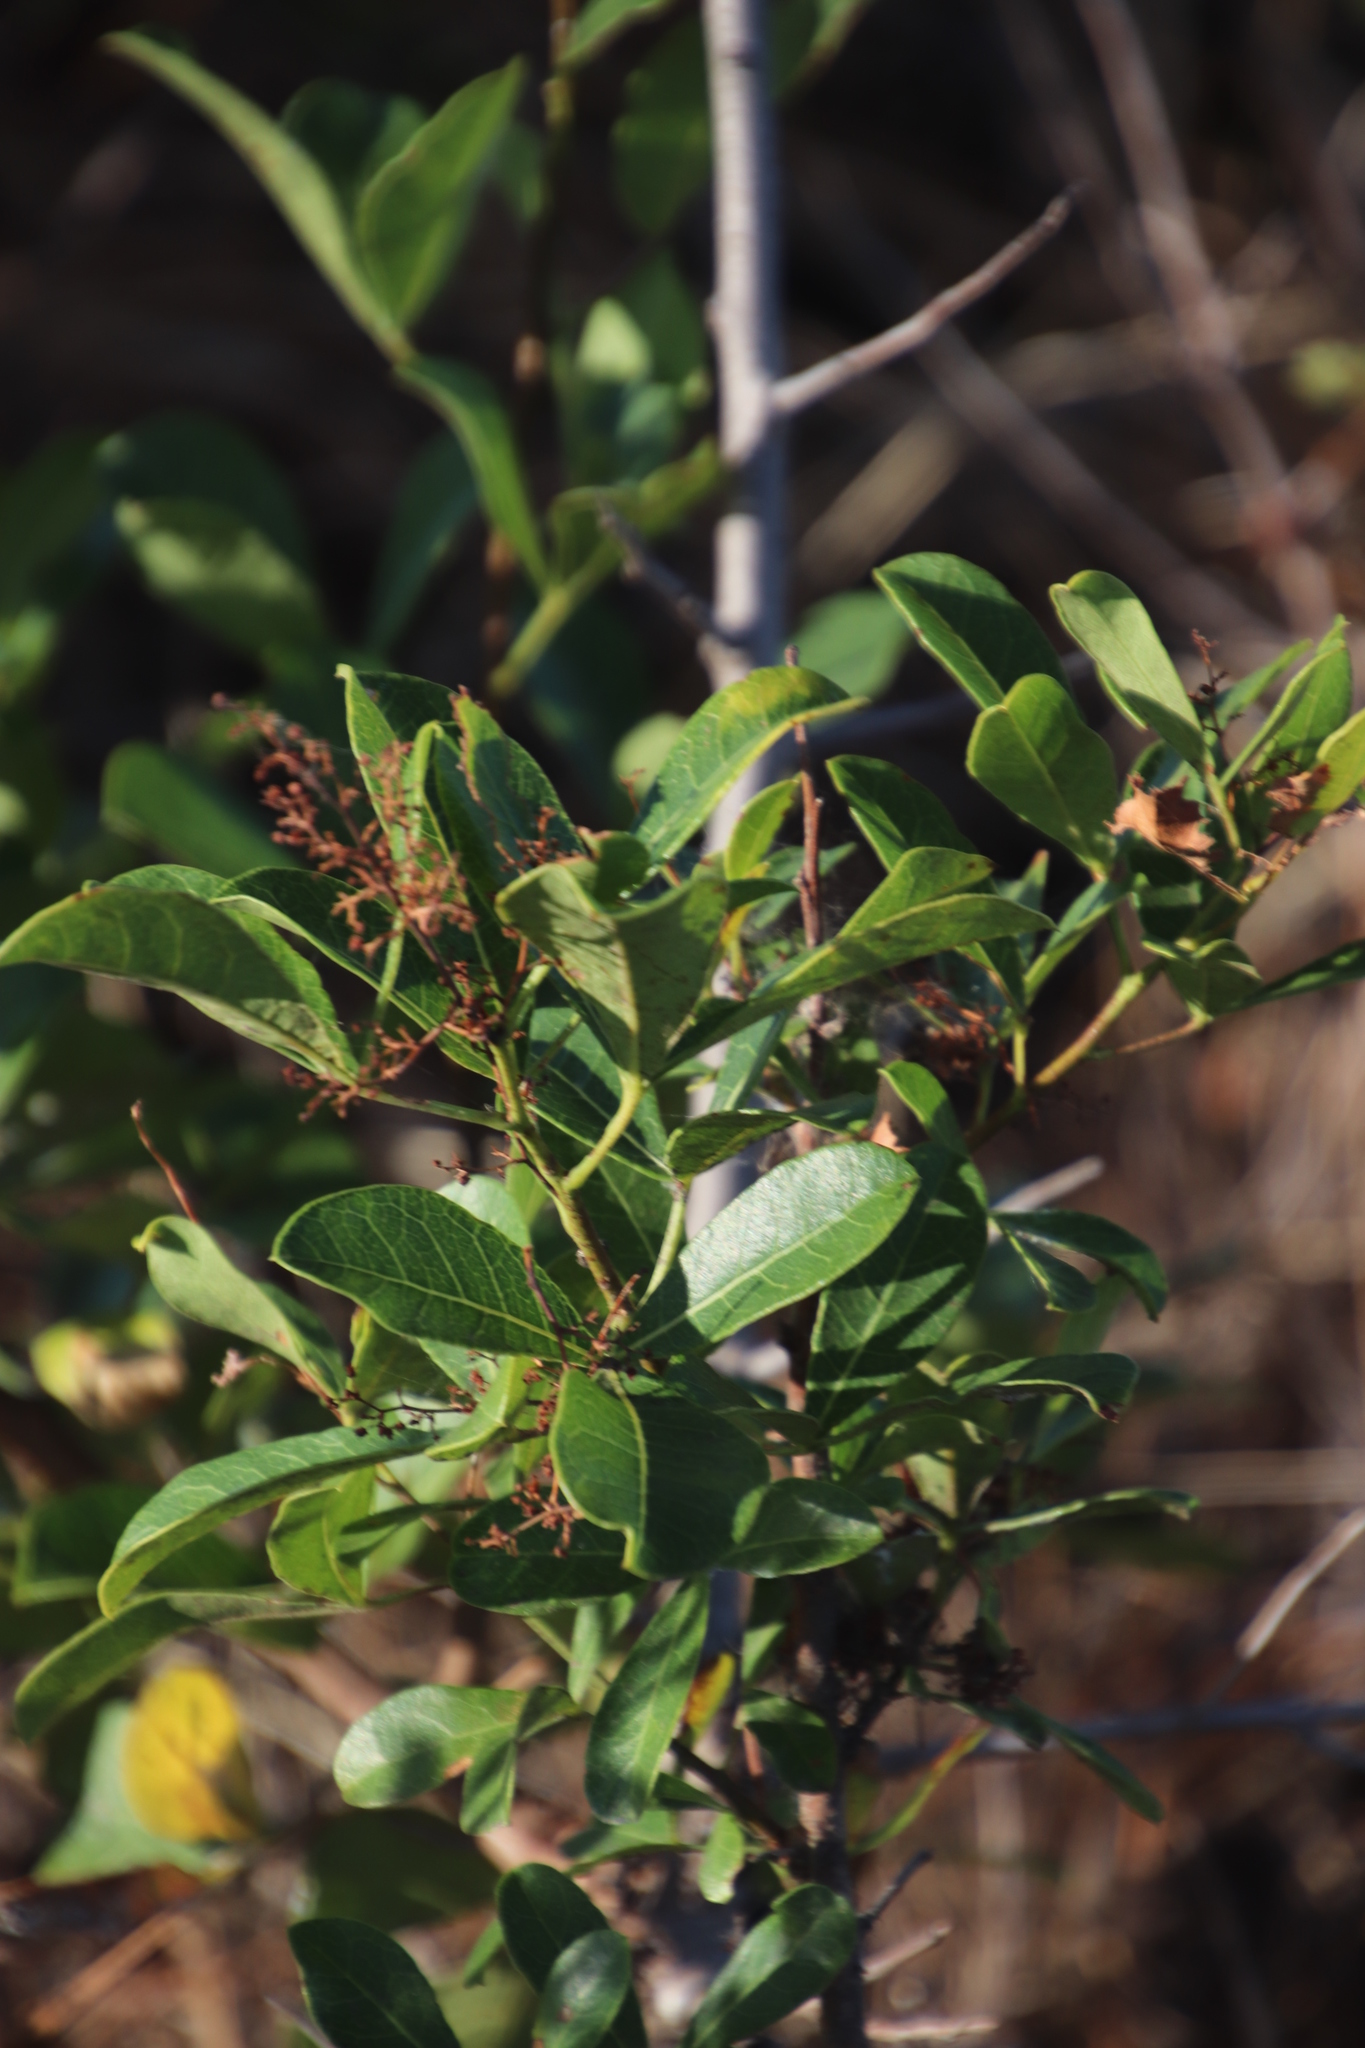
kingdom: Plantae
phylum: Tracheophyta
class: Magnoliopsida
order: Sapindales
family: Anacardiaceae
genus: Searsia
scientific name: Searsia laevigata
